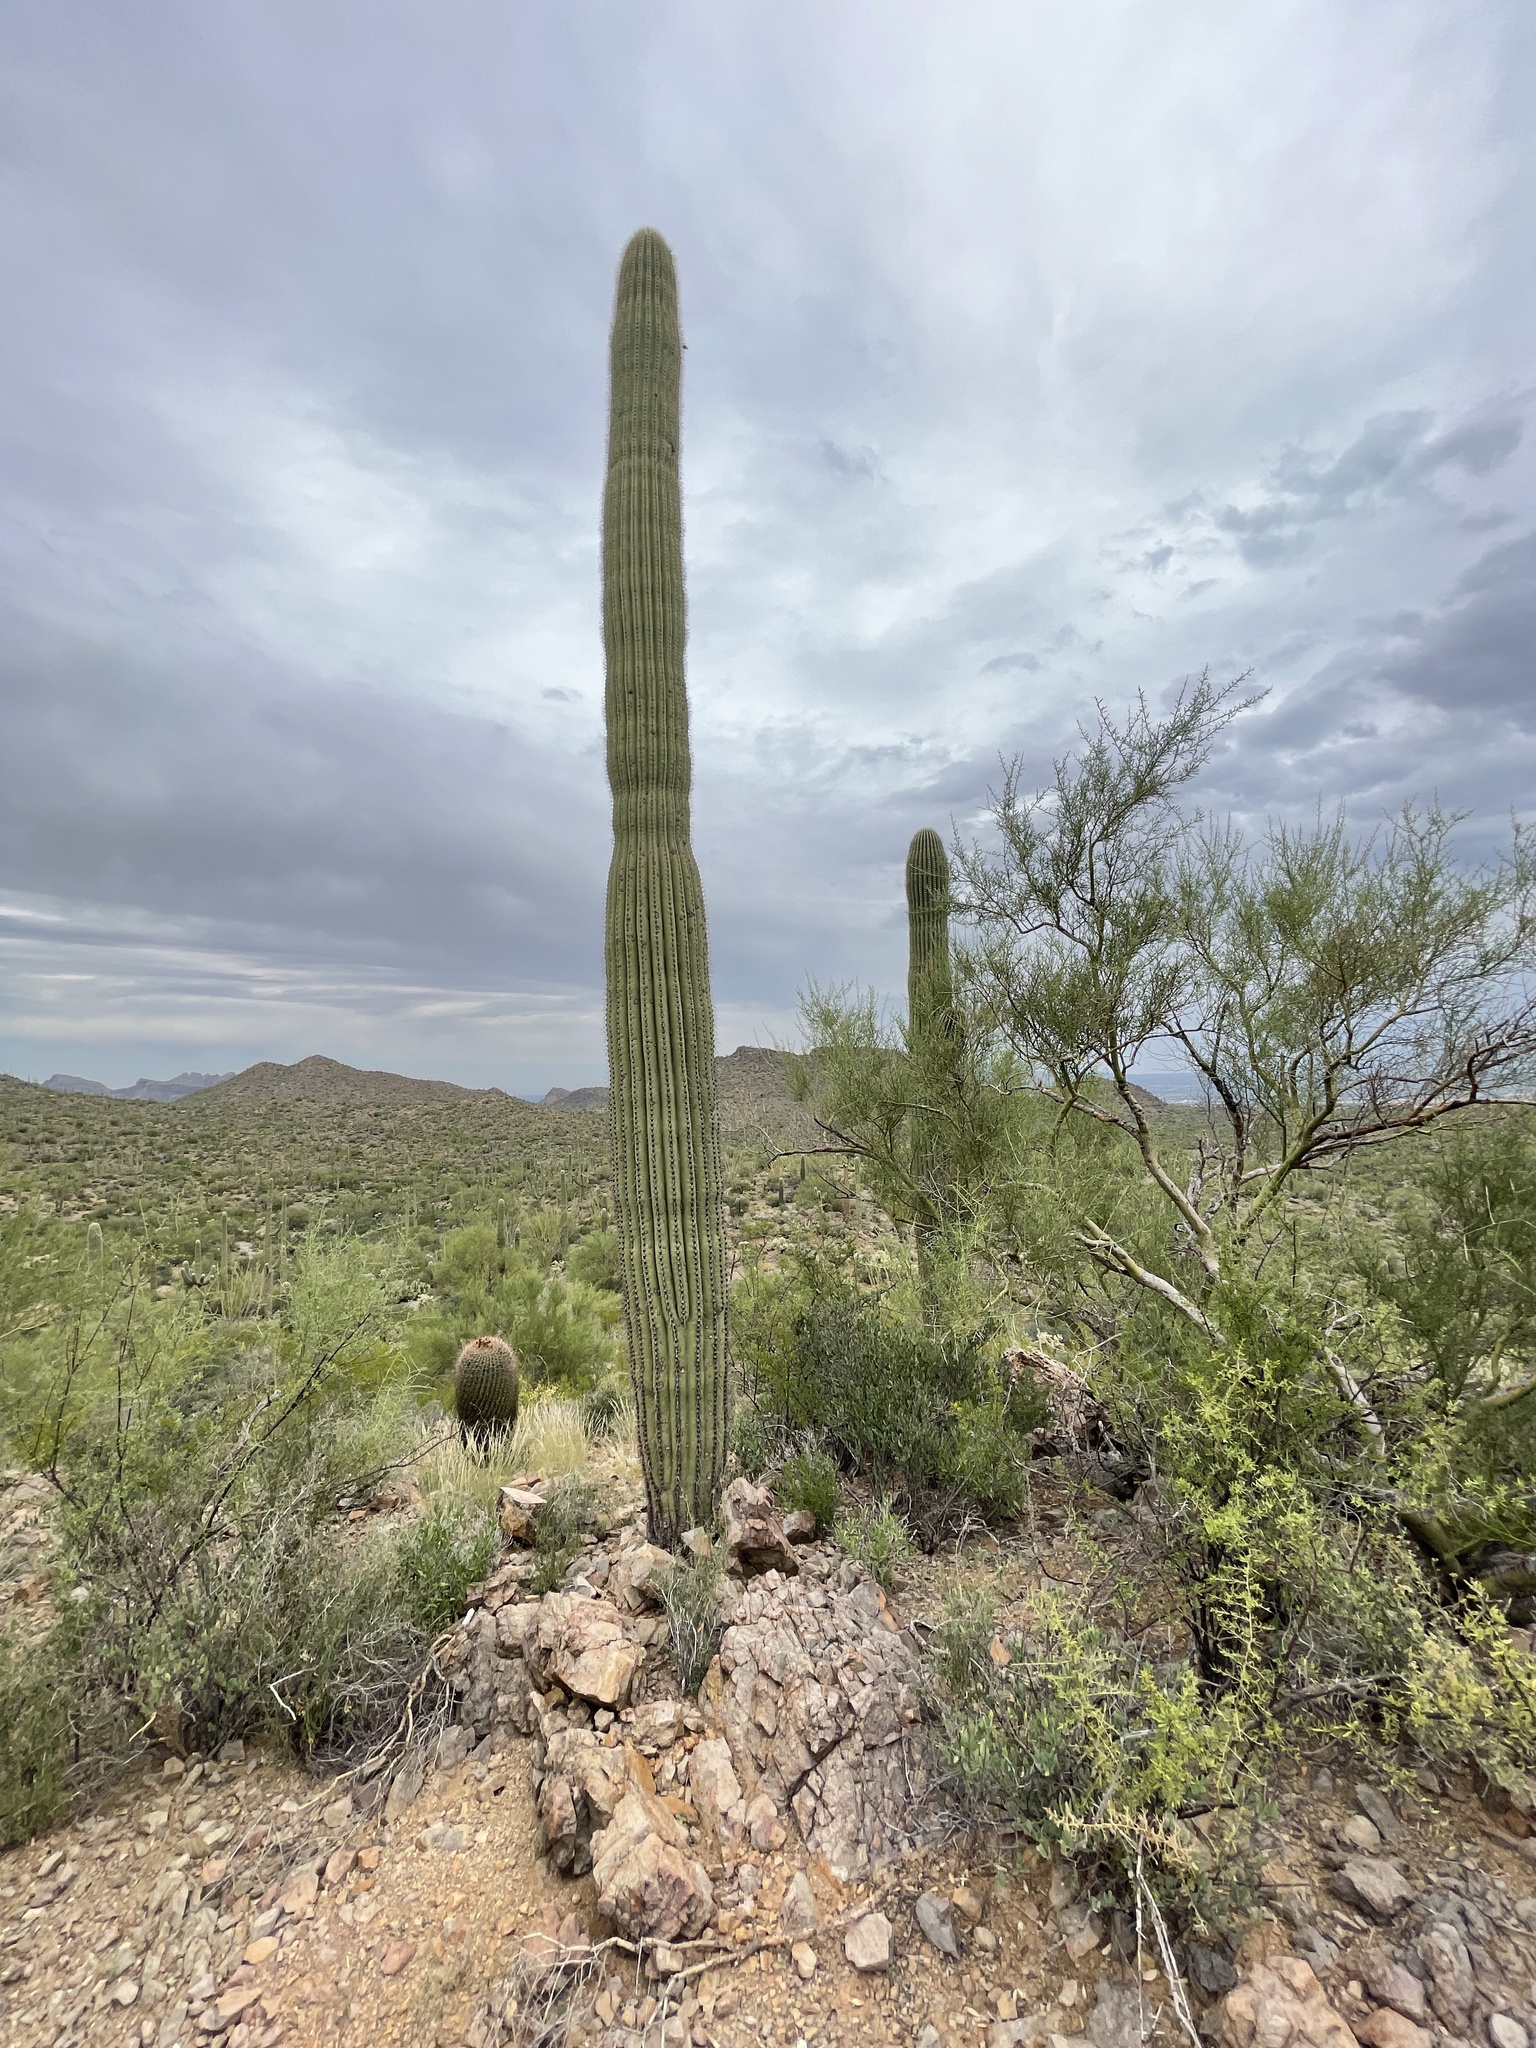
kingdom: Plantae
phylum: Tracheophyta
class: Magnoliopsida
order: Caryophyllales
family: Cactaceae
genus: Carnegiea
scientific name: Carnegiea gigantea
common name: Saguaro
